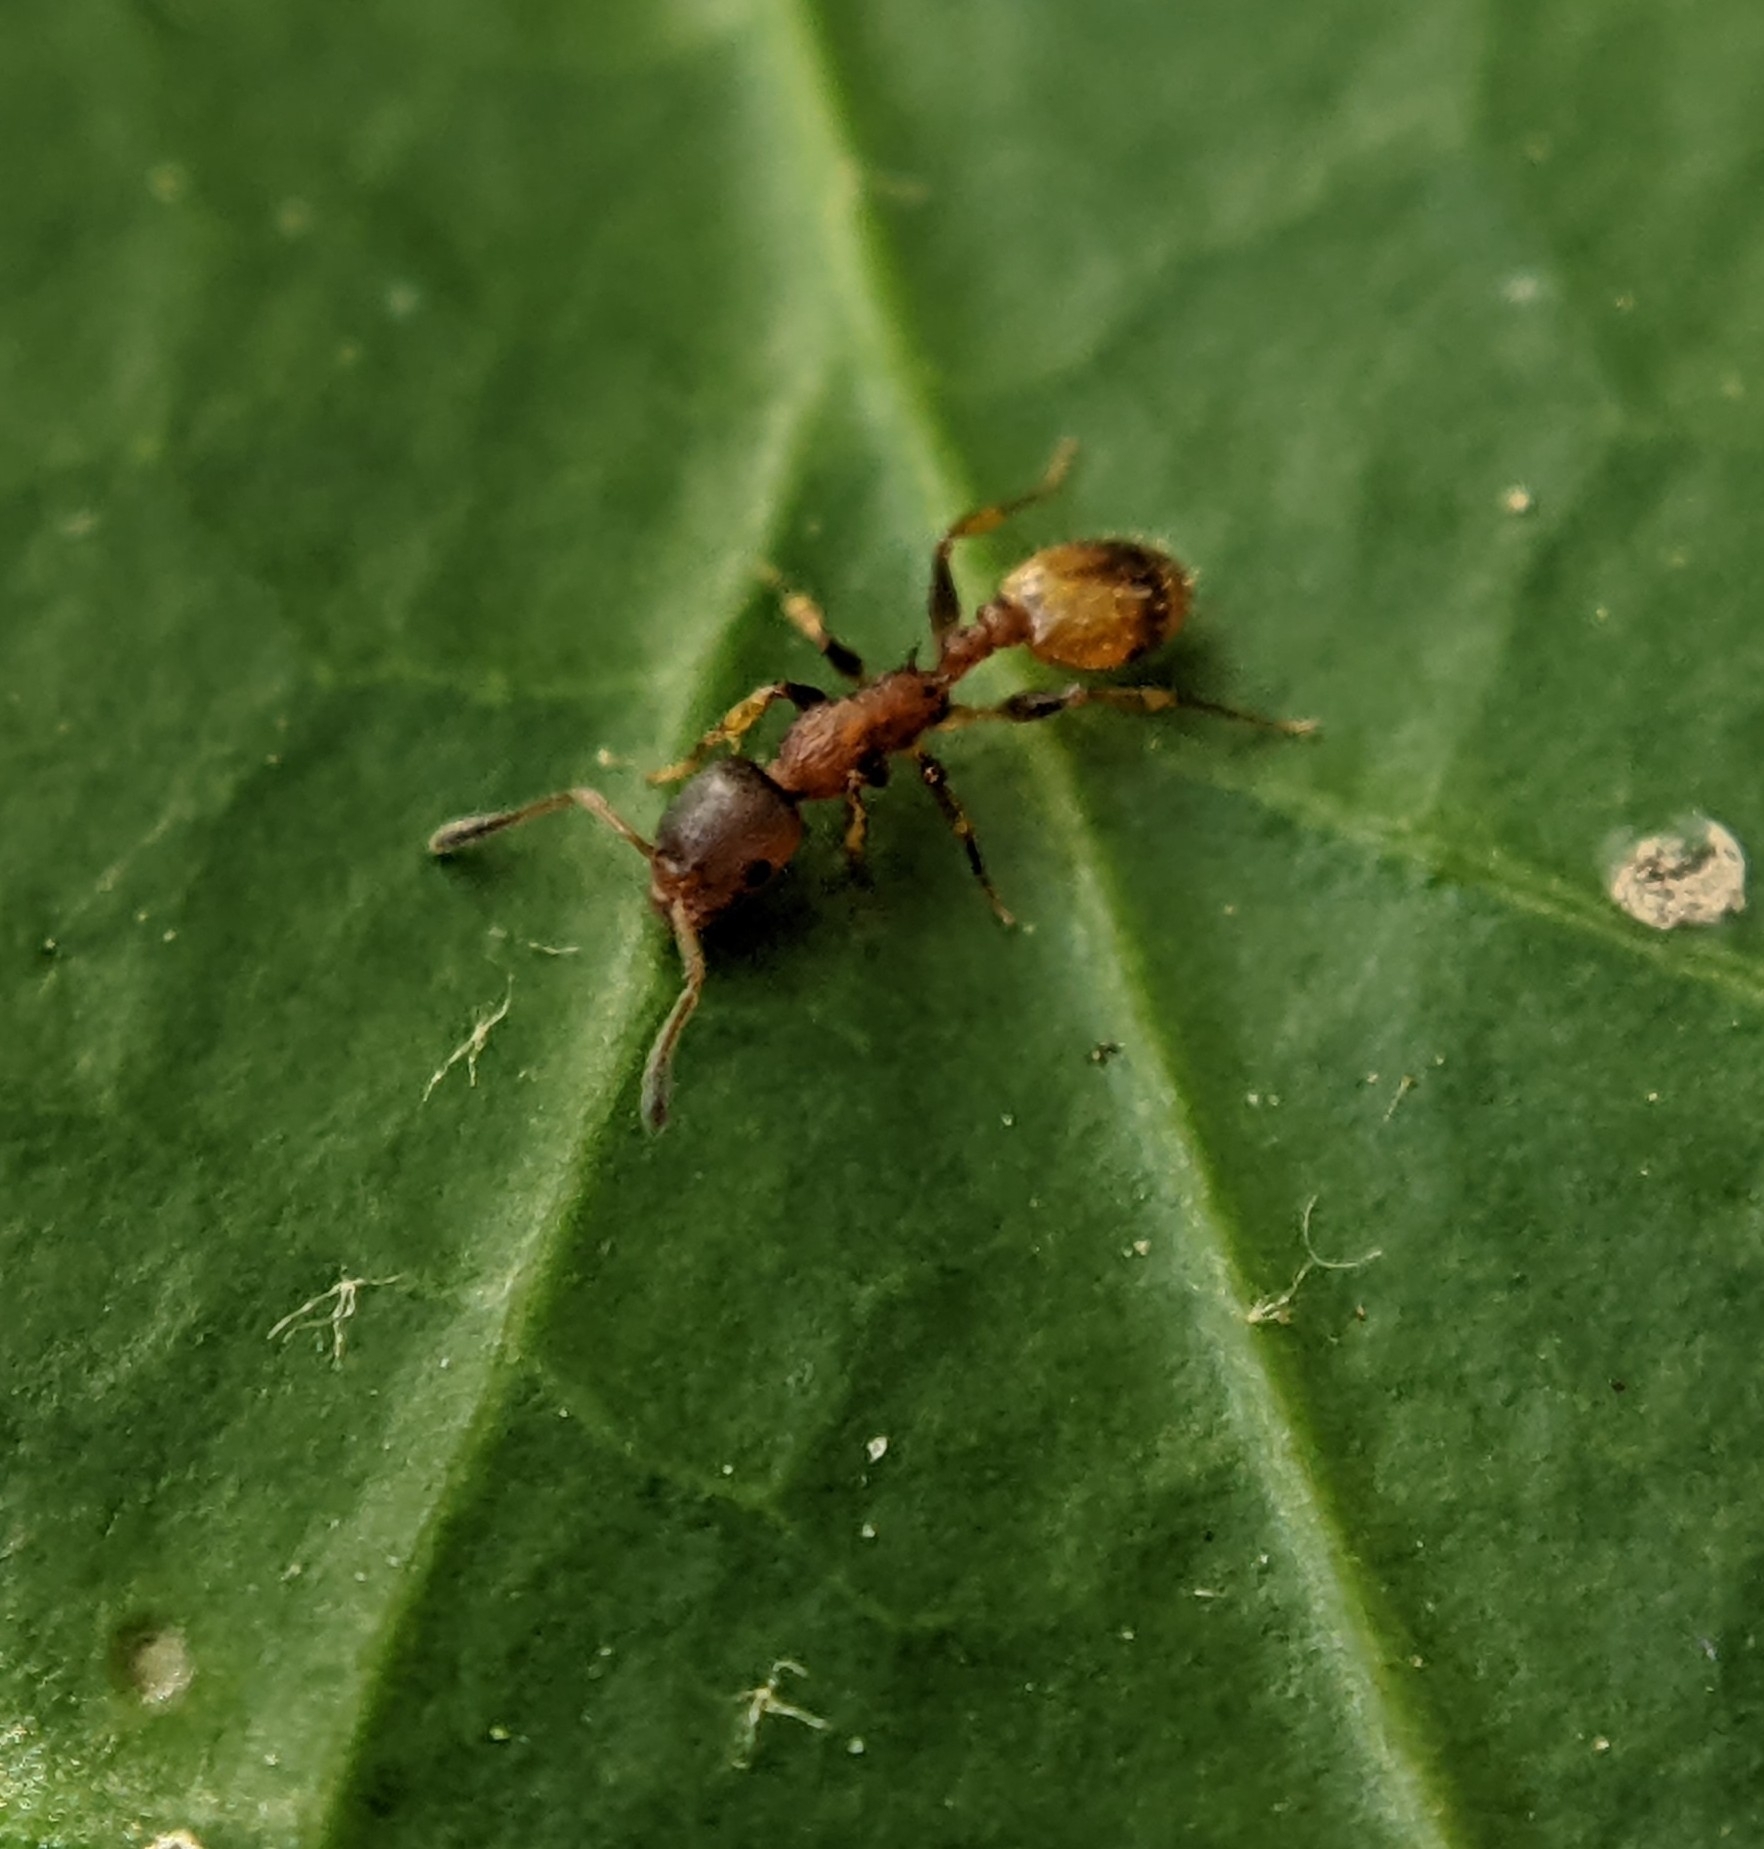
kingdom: Animalia
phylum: Arthropoda
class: Insecta
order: Hymenoptera
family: Formicidae
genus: Leptothorax
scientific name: Leptothorax affinis
